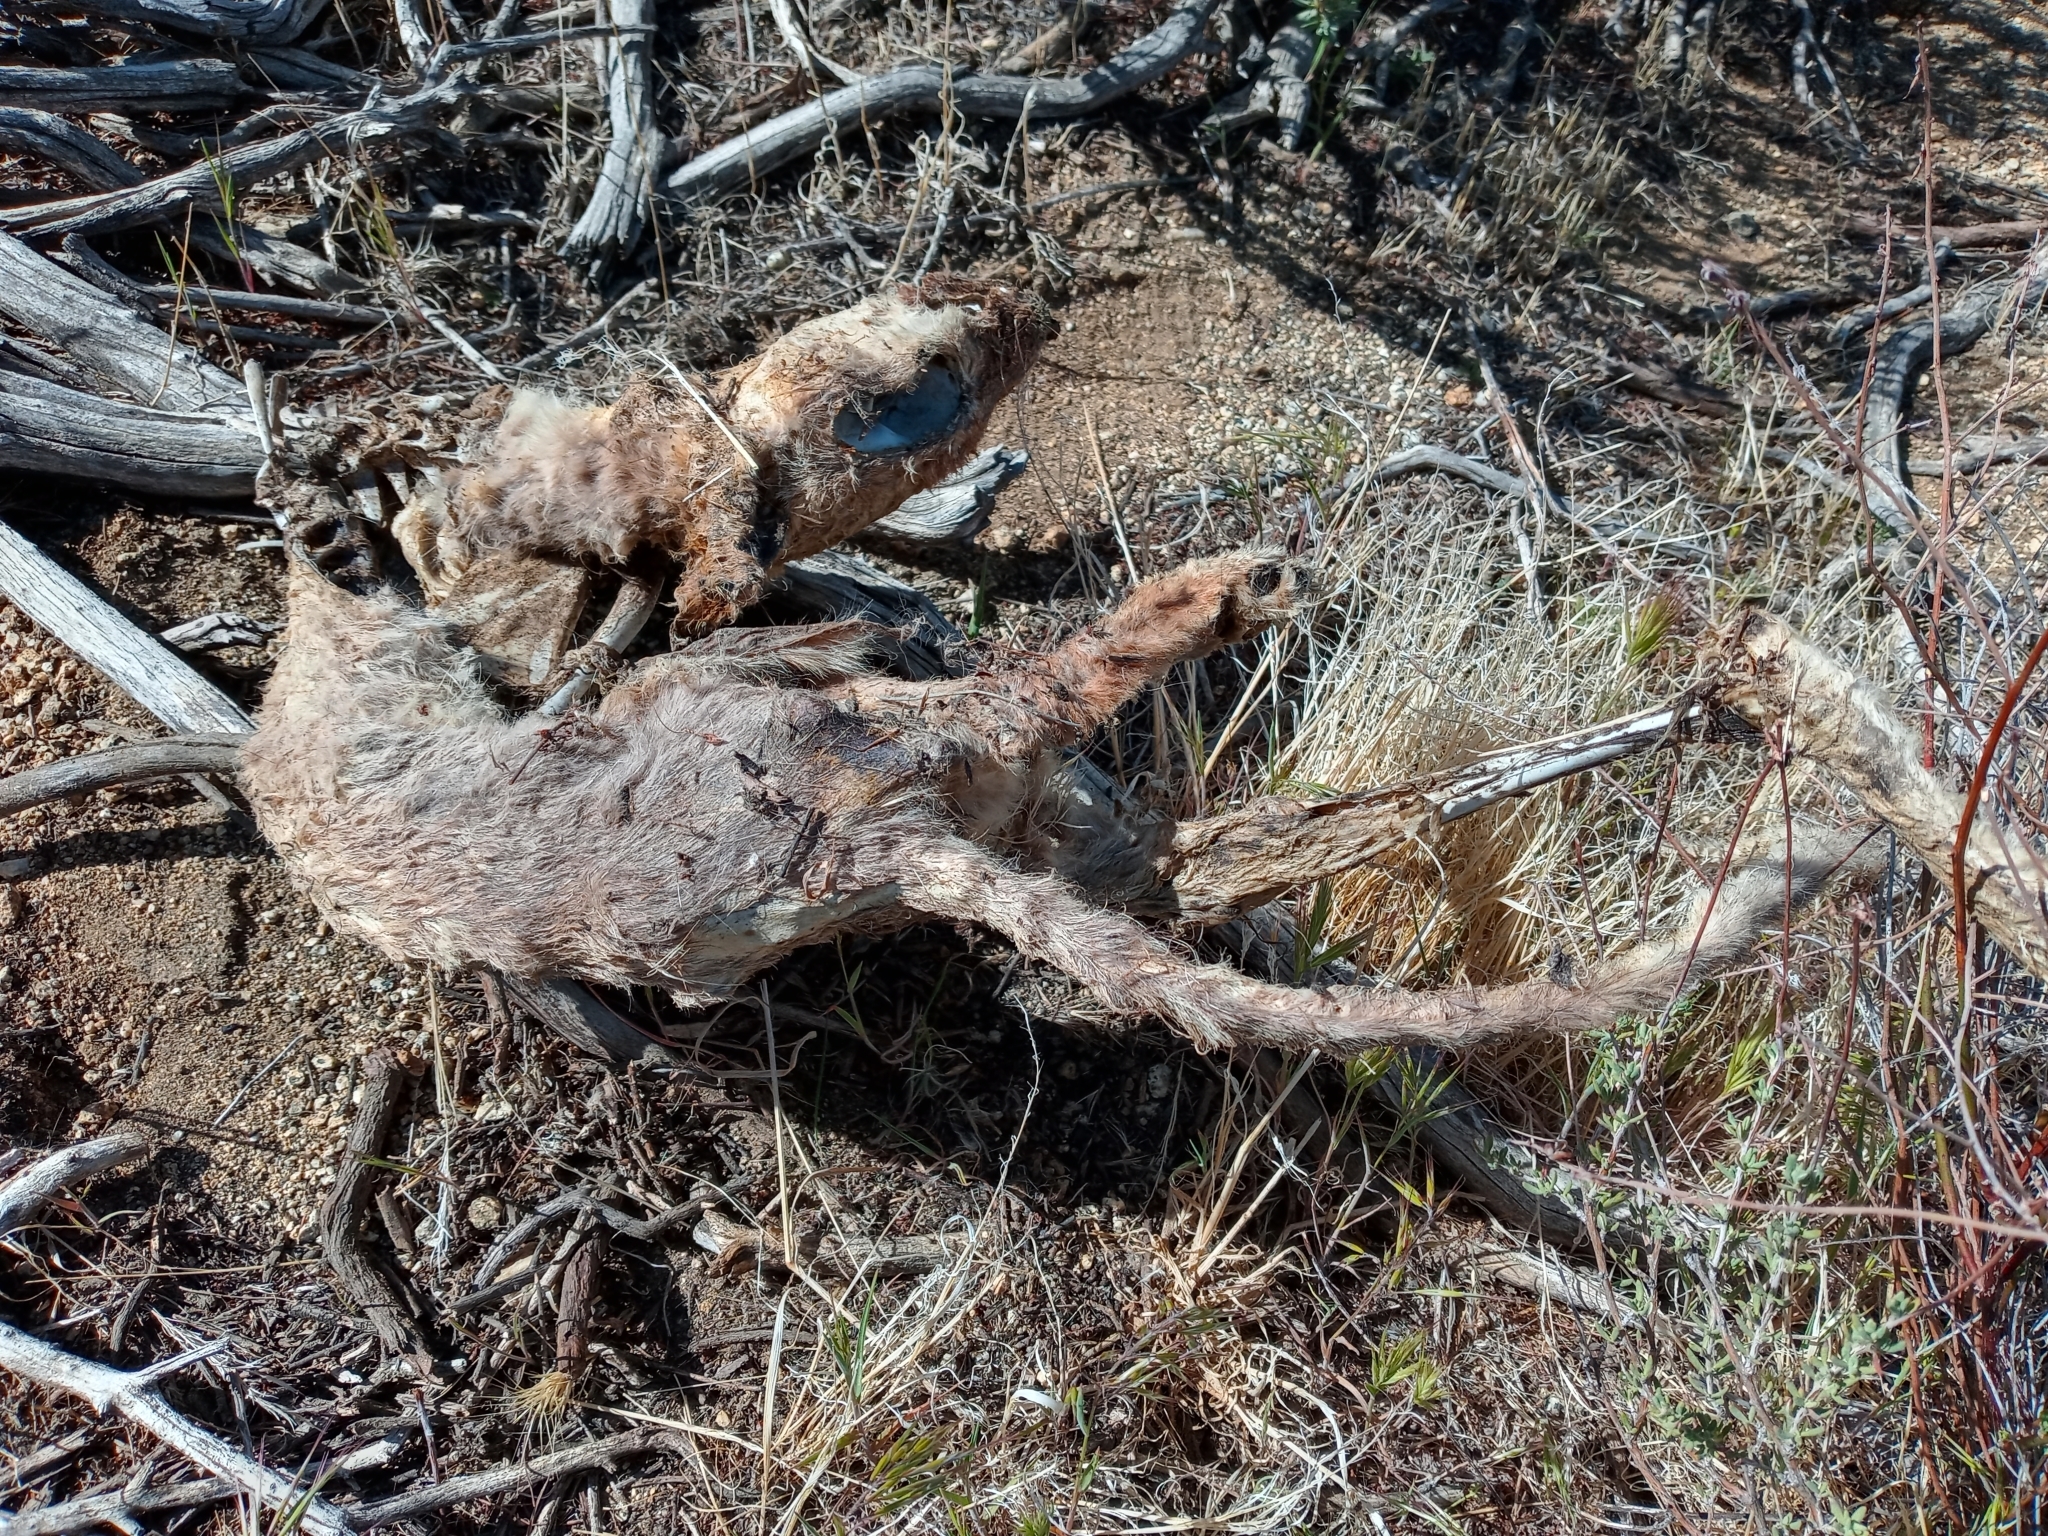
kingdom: Animalia
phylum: Chordata
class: Mammalia
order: Carnivora
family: Canidae
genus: Urocyon
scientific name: Urocyon cinereoargenteus
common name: Gray fox
